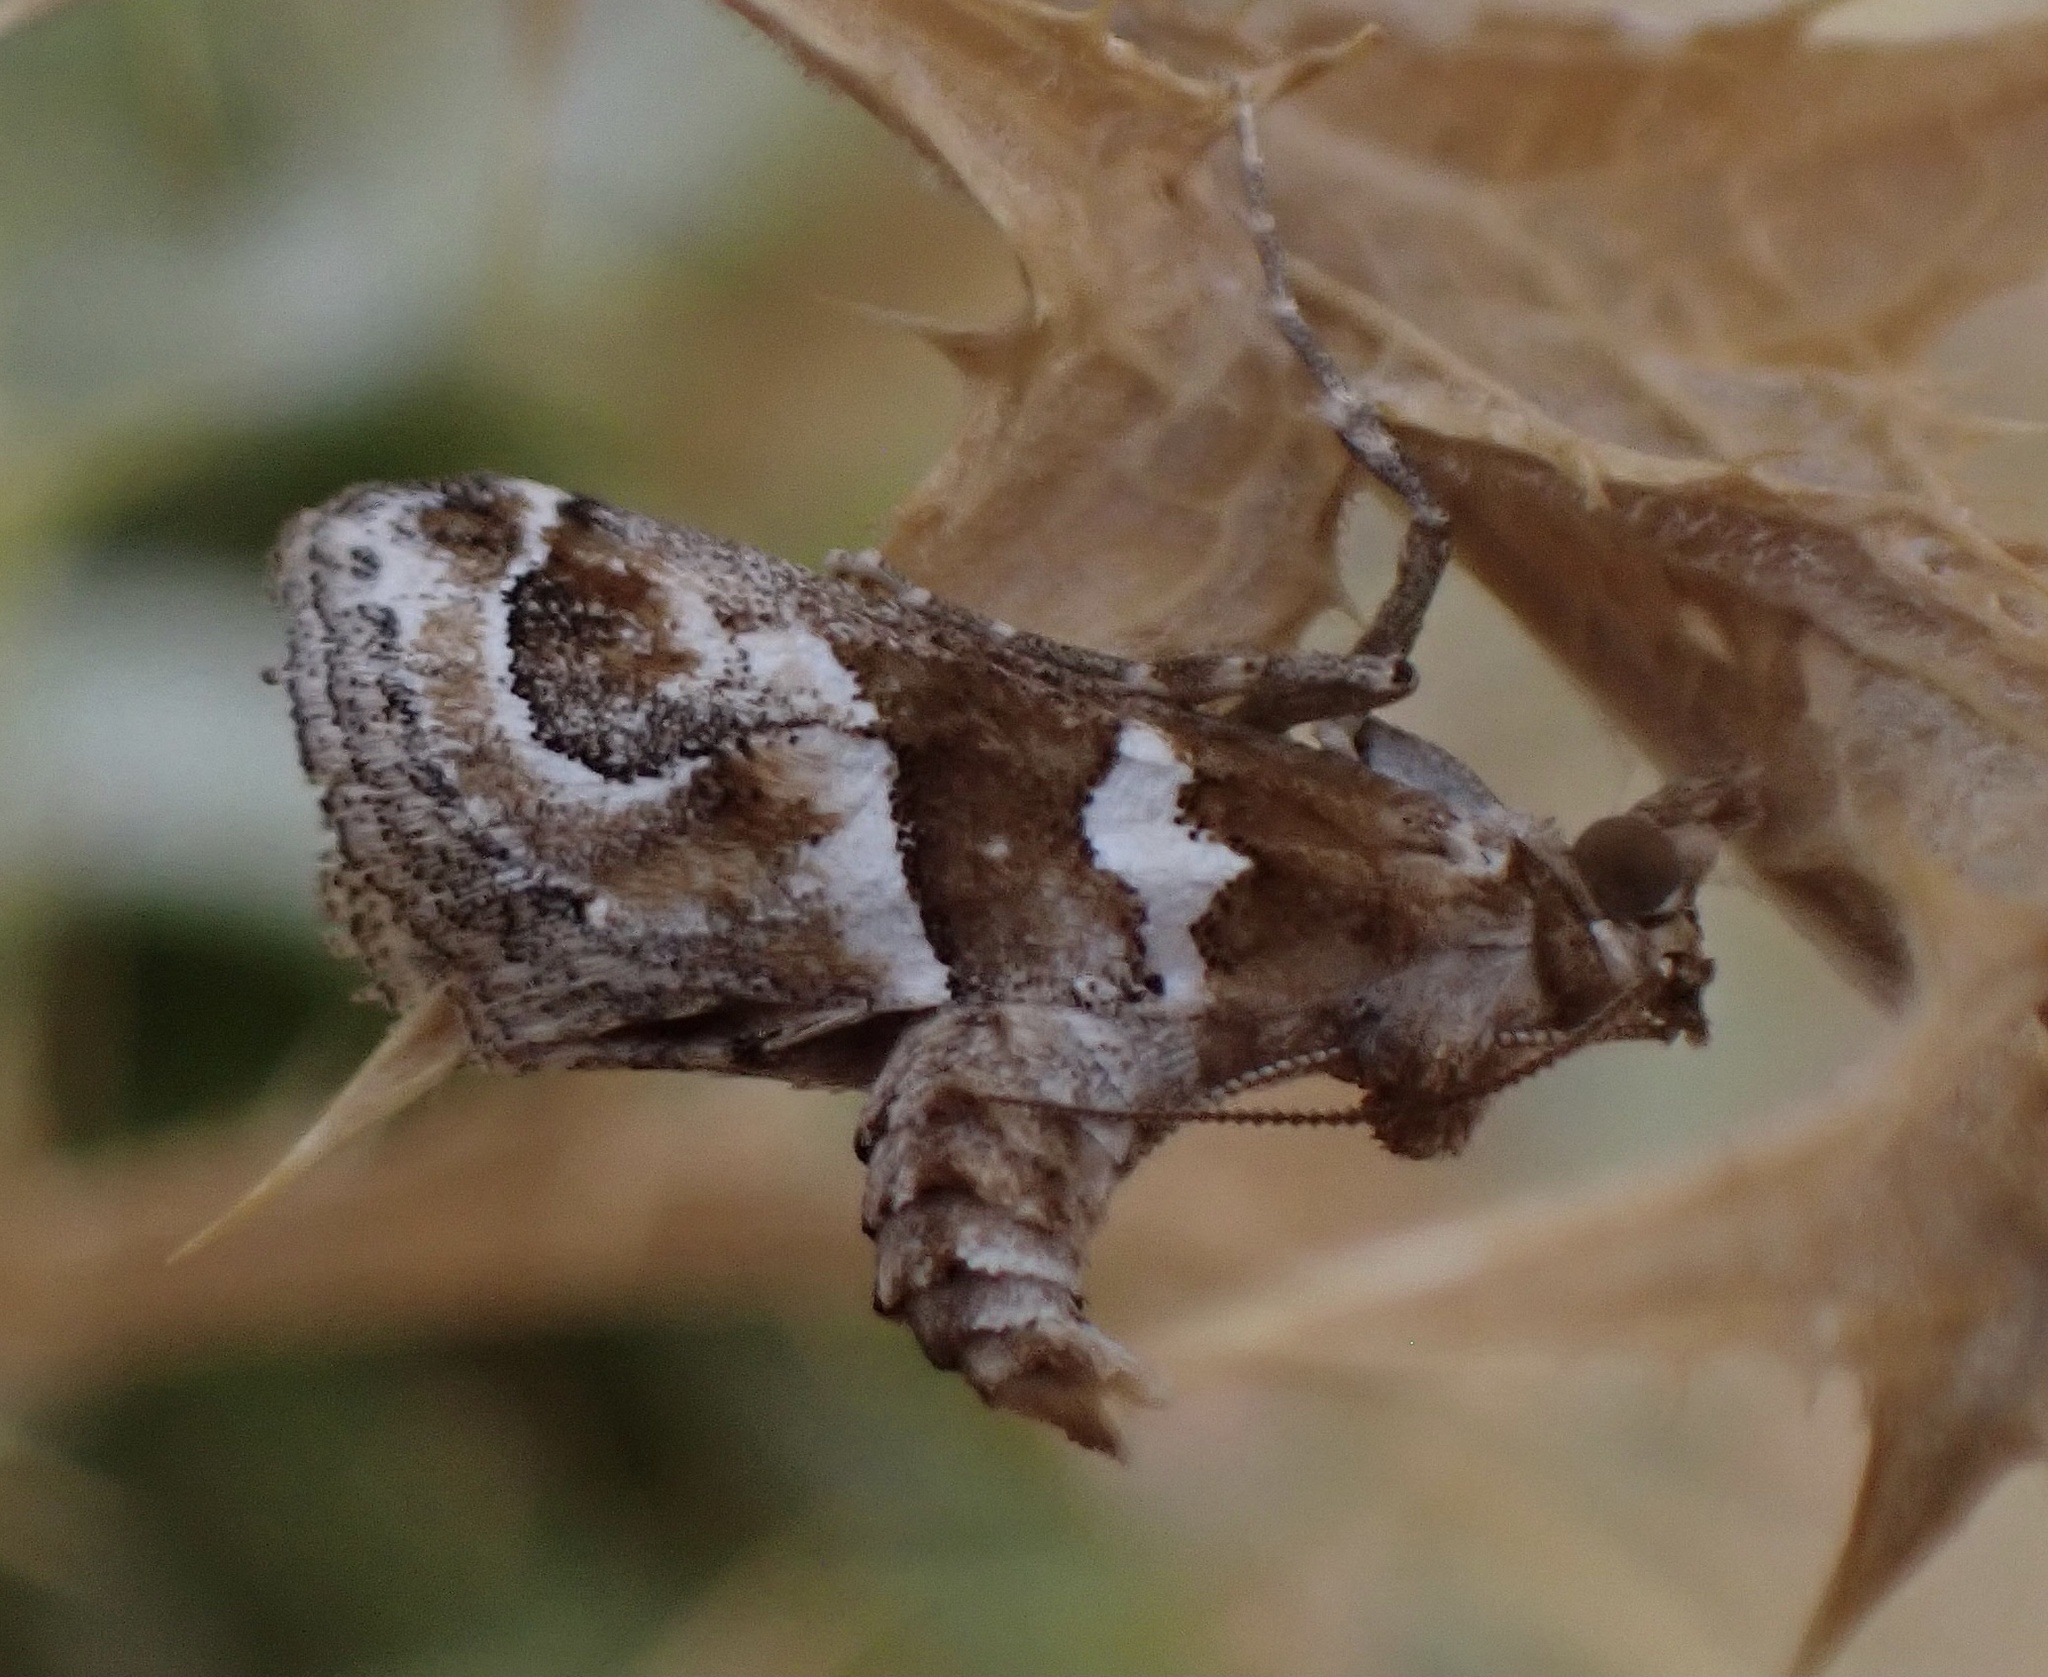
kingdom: Animalia
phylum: Arthropoda
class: Insecta
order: Lepidoptera
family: Pyralidae
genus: Hypotia
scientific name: Hypotia corticalis
